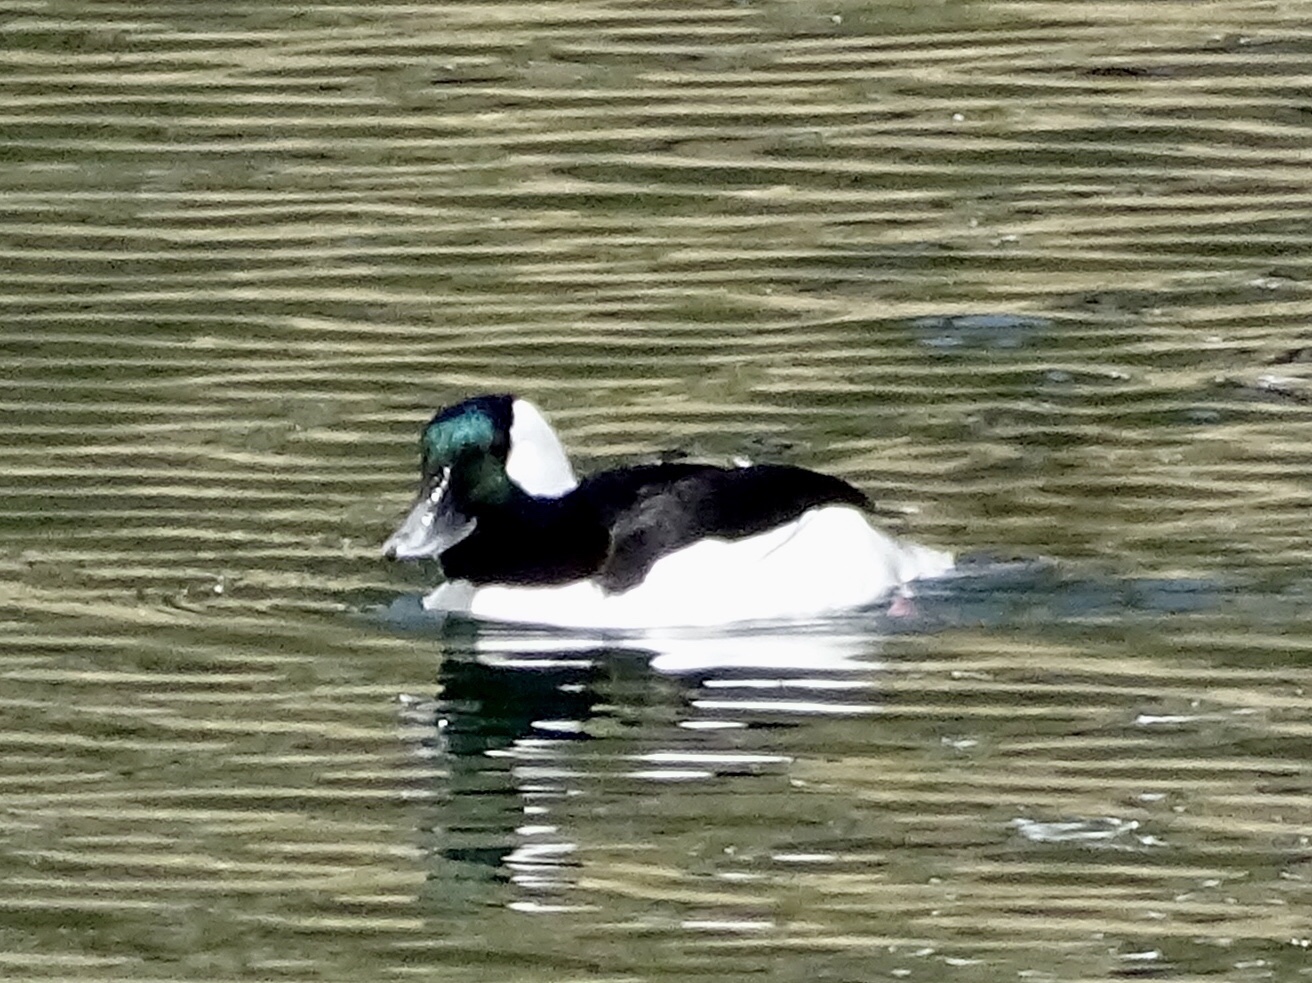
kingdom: Animalia
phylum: Chordata
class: Aves
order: Anseriformes
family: Anatidae
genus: Bucephala
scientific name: Bucephala albeola
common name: Bufflehead
